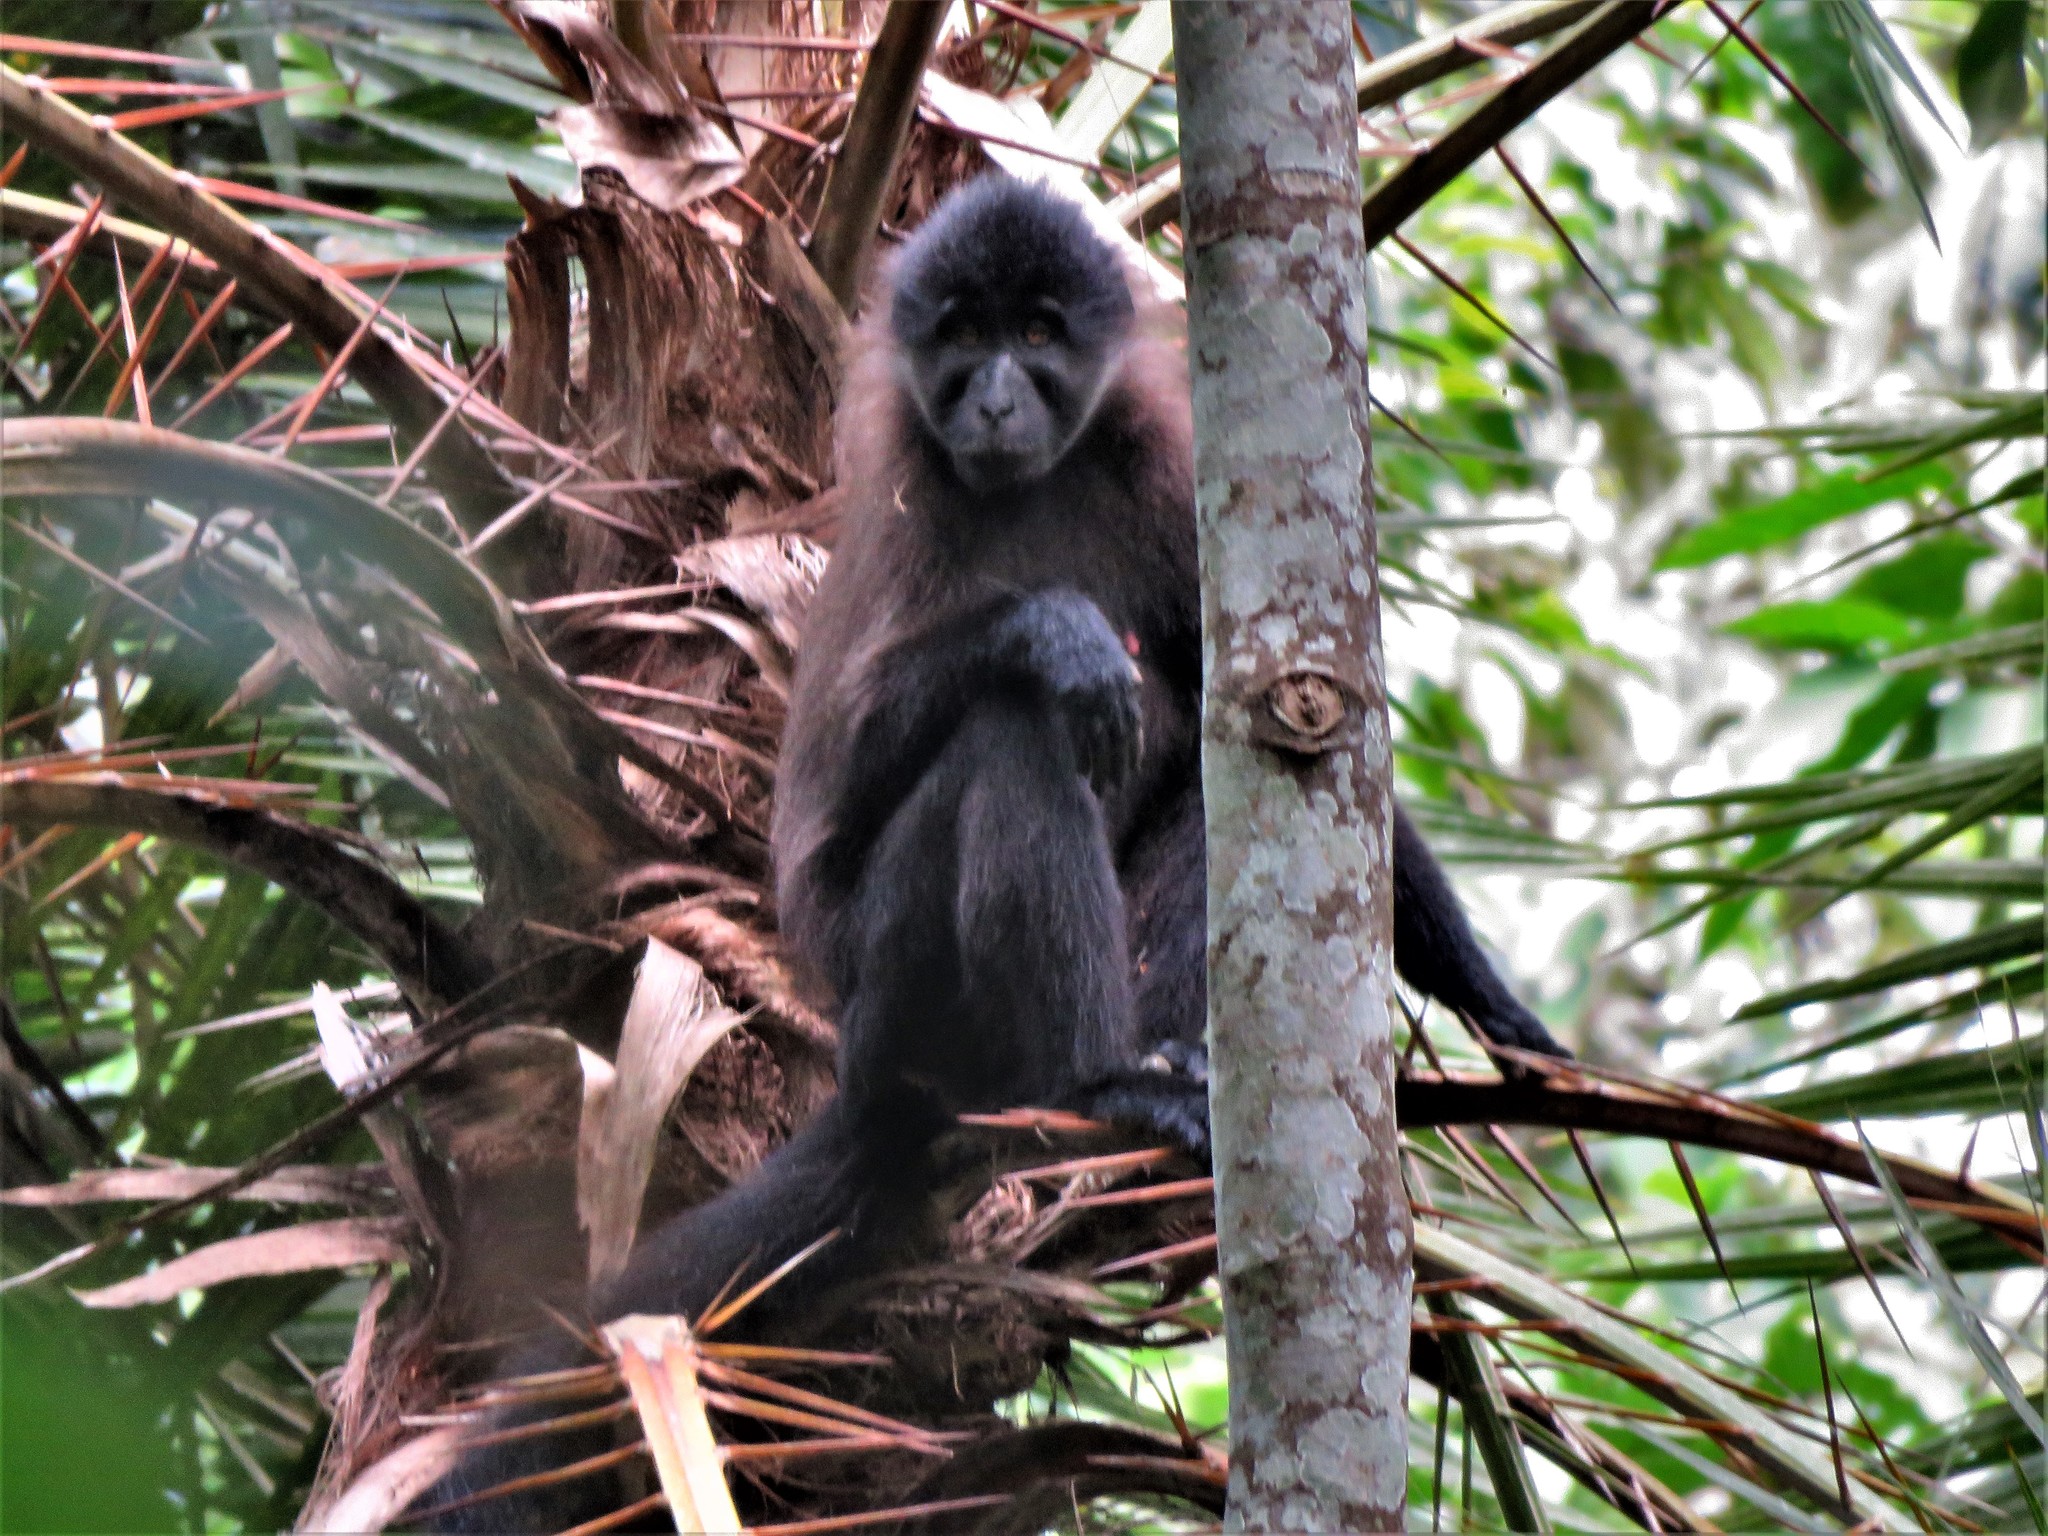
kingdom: Animalia
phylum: Chordata
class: Mammalia
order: Primates
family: Cercopithecidae
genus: Lophocebus
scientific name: Lophocebus albigena
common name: Gray-cheeked mangabey
